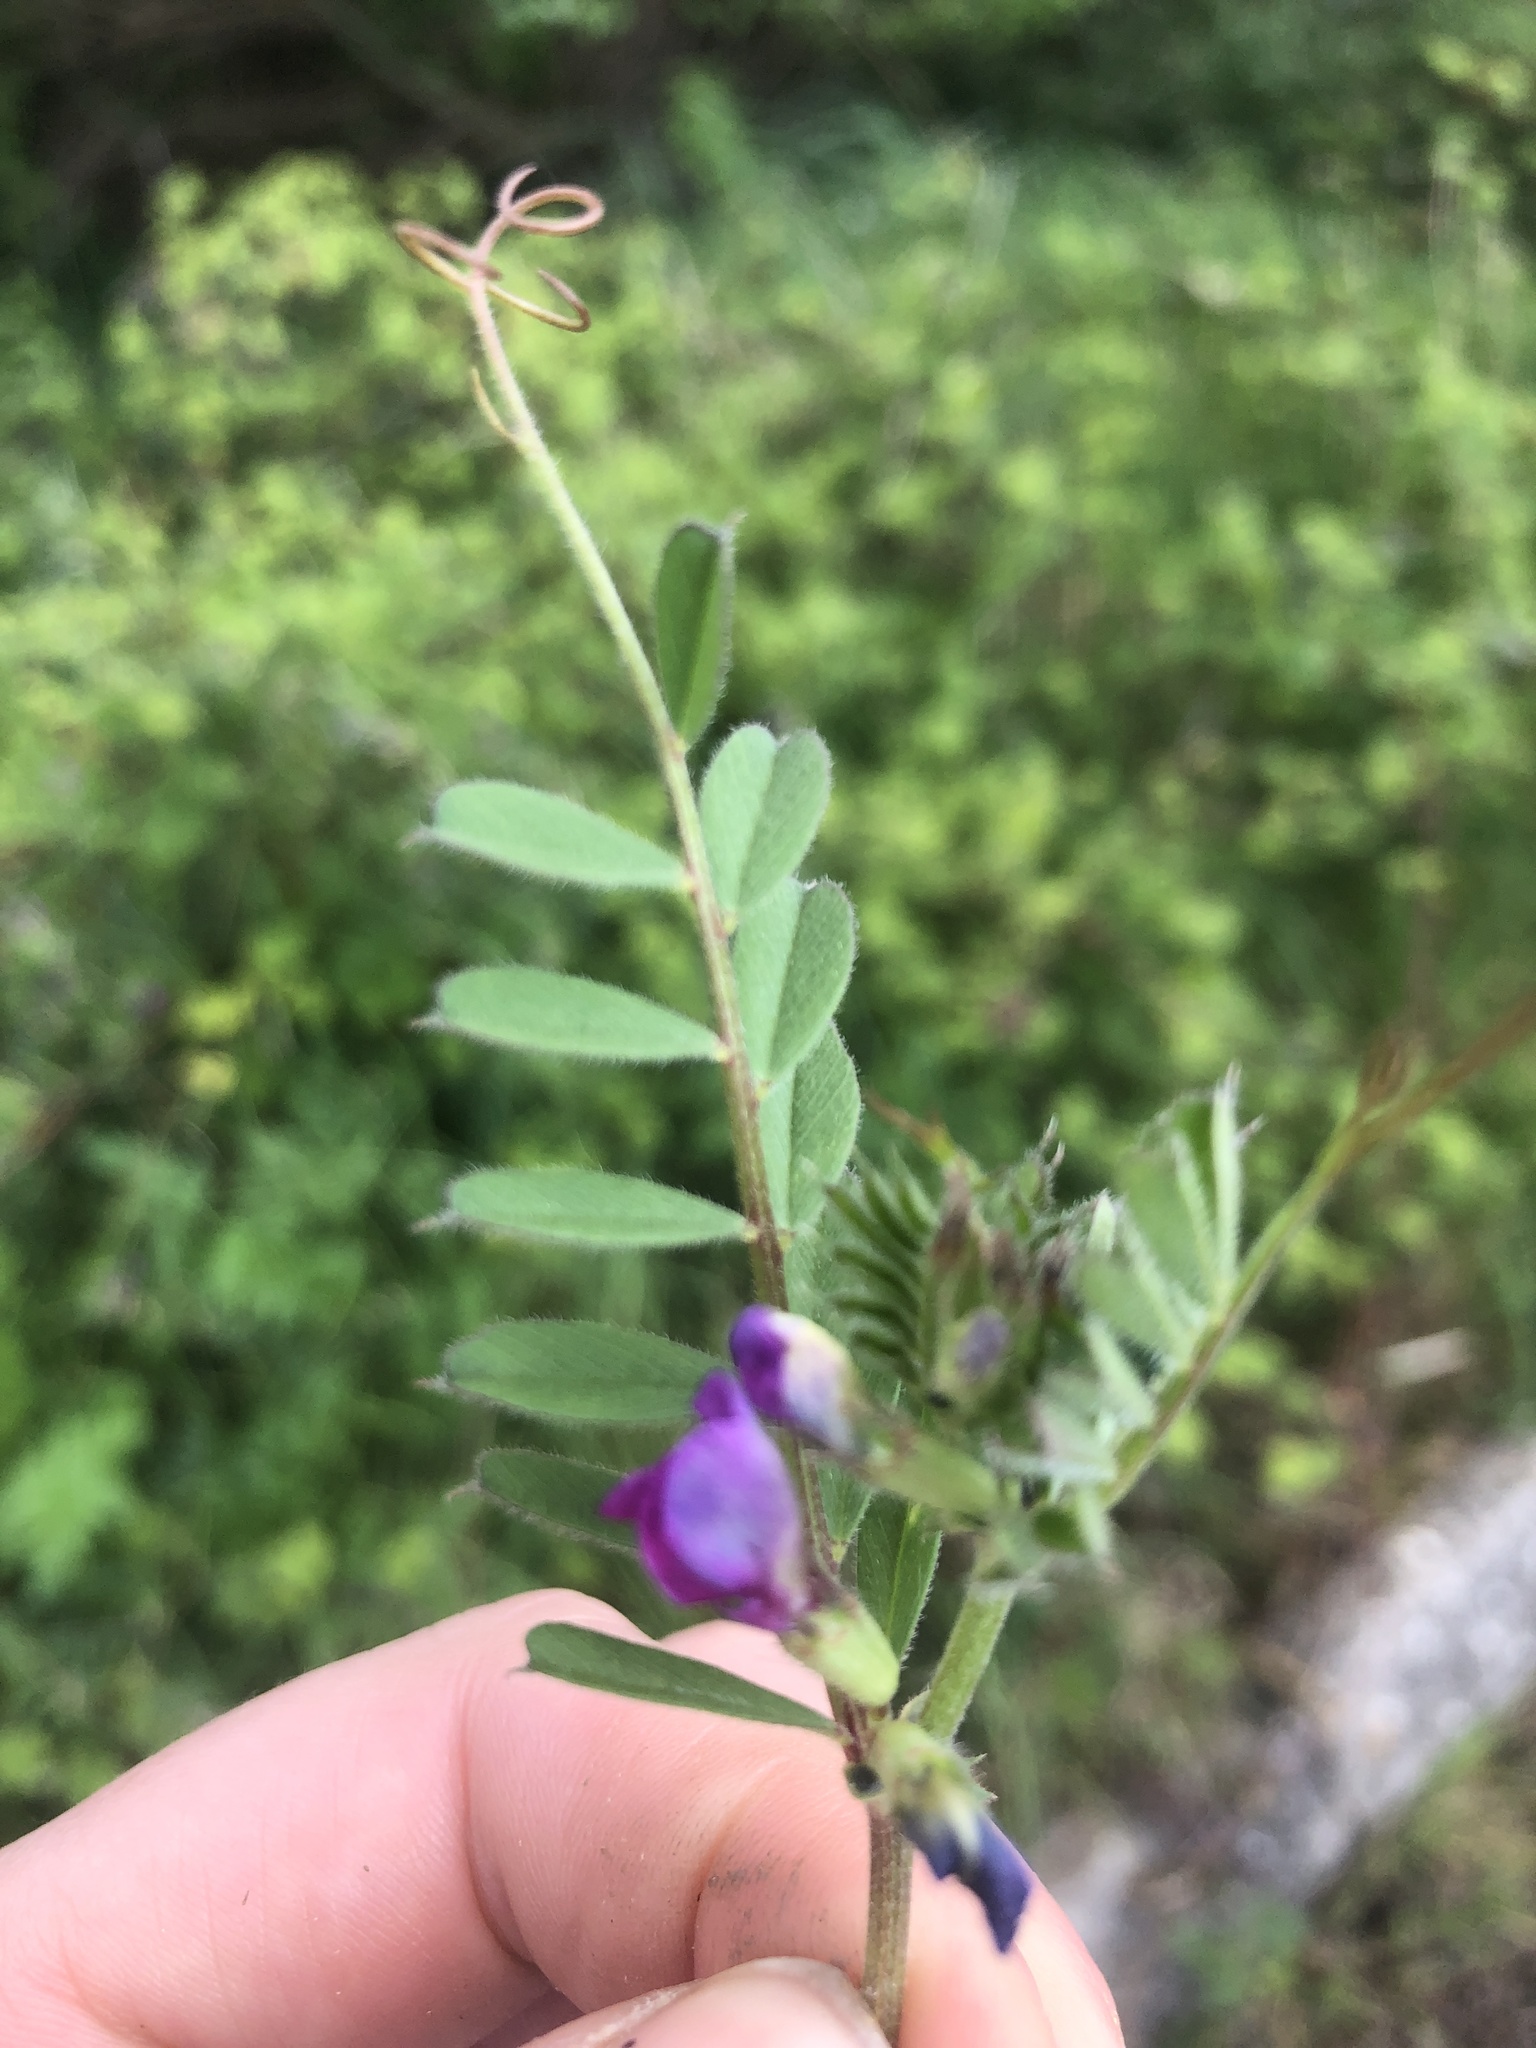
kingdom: Plantae
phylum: Tracheophyta
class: Magnoliopsida
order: Fabales
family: Fabaceae
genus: Vicia
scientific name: Vicia sativa
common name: Garden vetch
